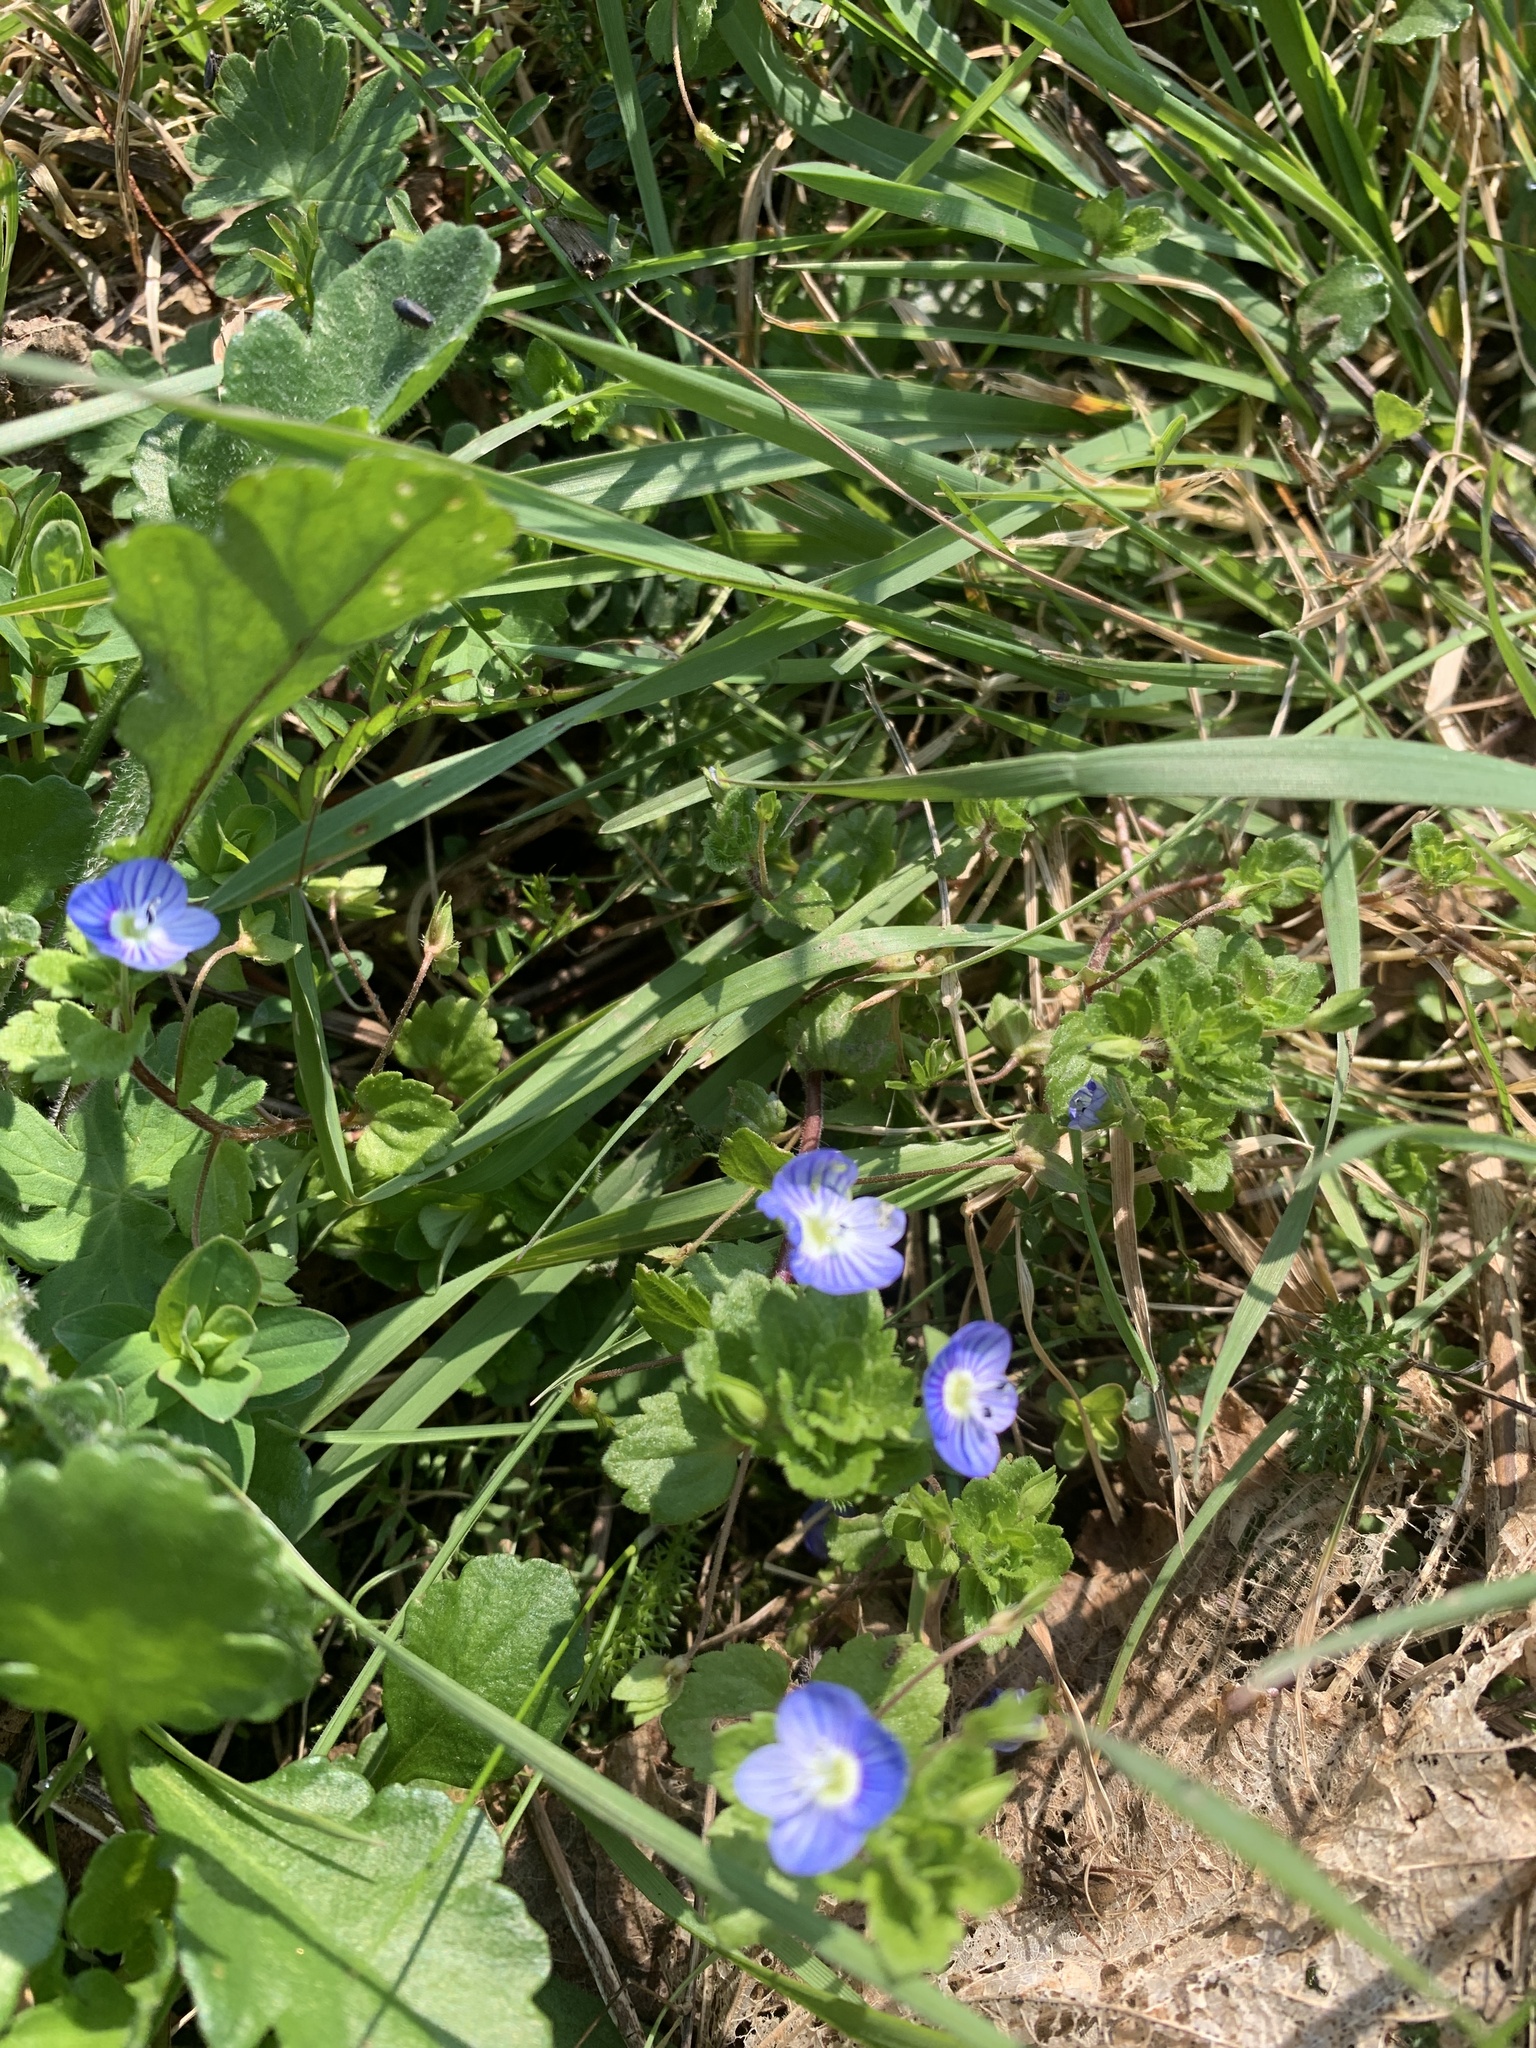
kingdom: Plantae
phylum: Tracheophyta
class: Magnoliopsida
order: Lamiales
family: Plantaginaceae
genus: Veronica
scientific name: Veronica persica
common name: Common field-speedwell
